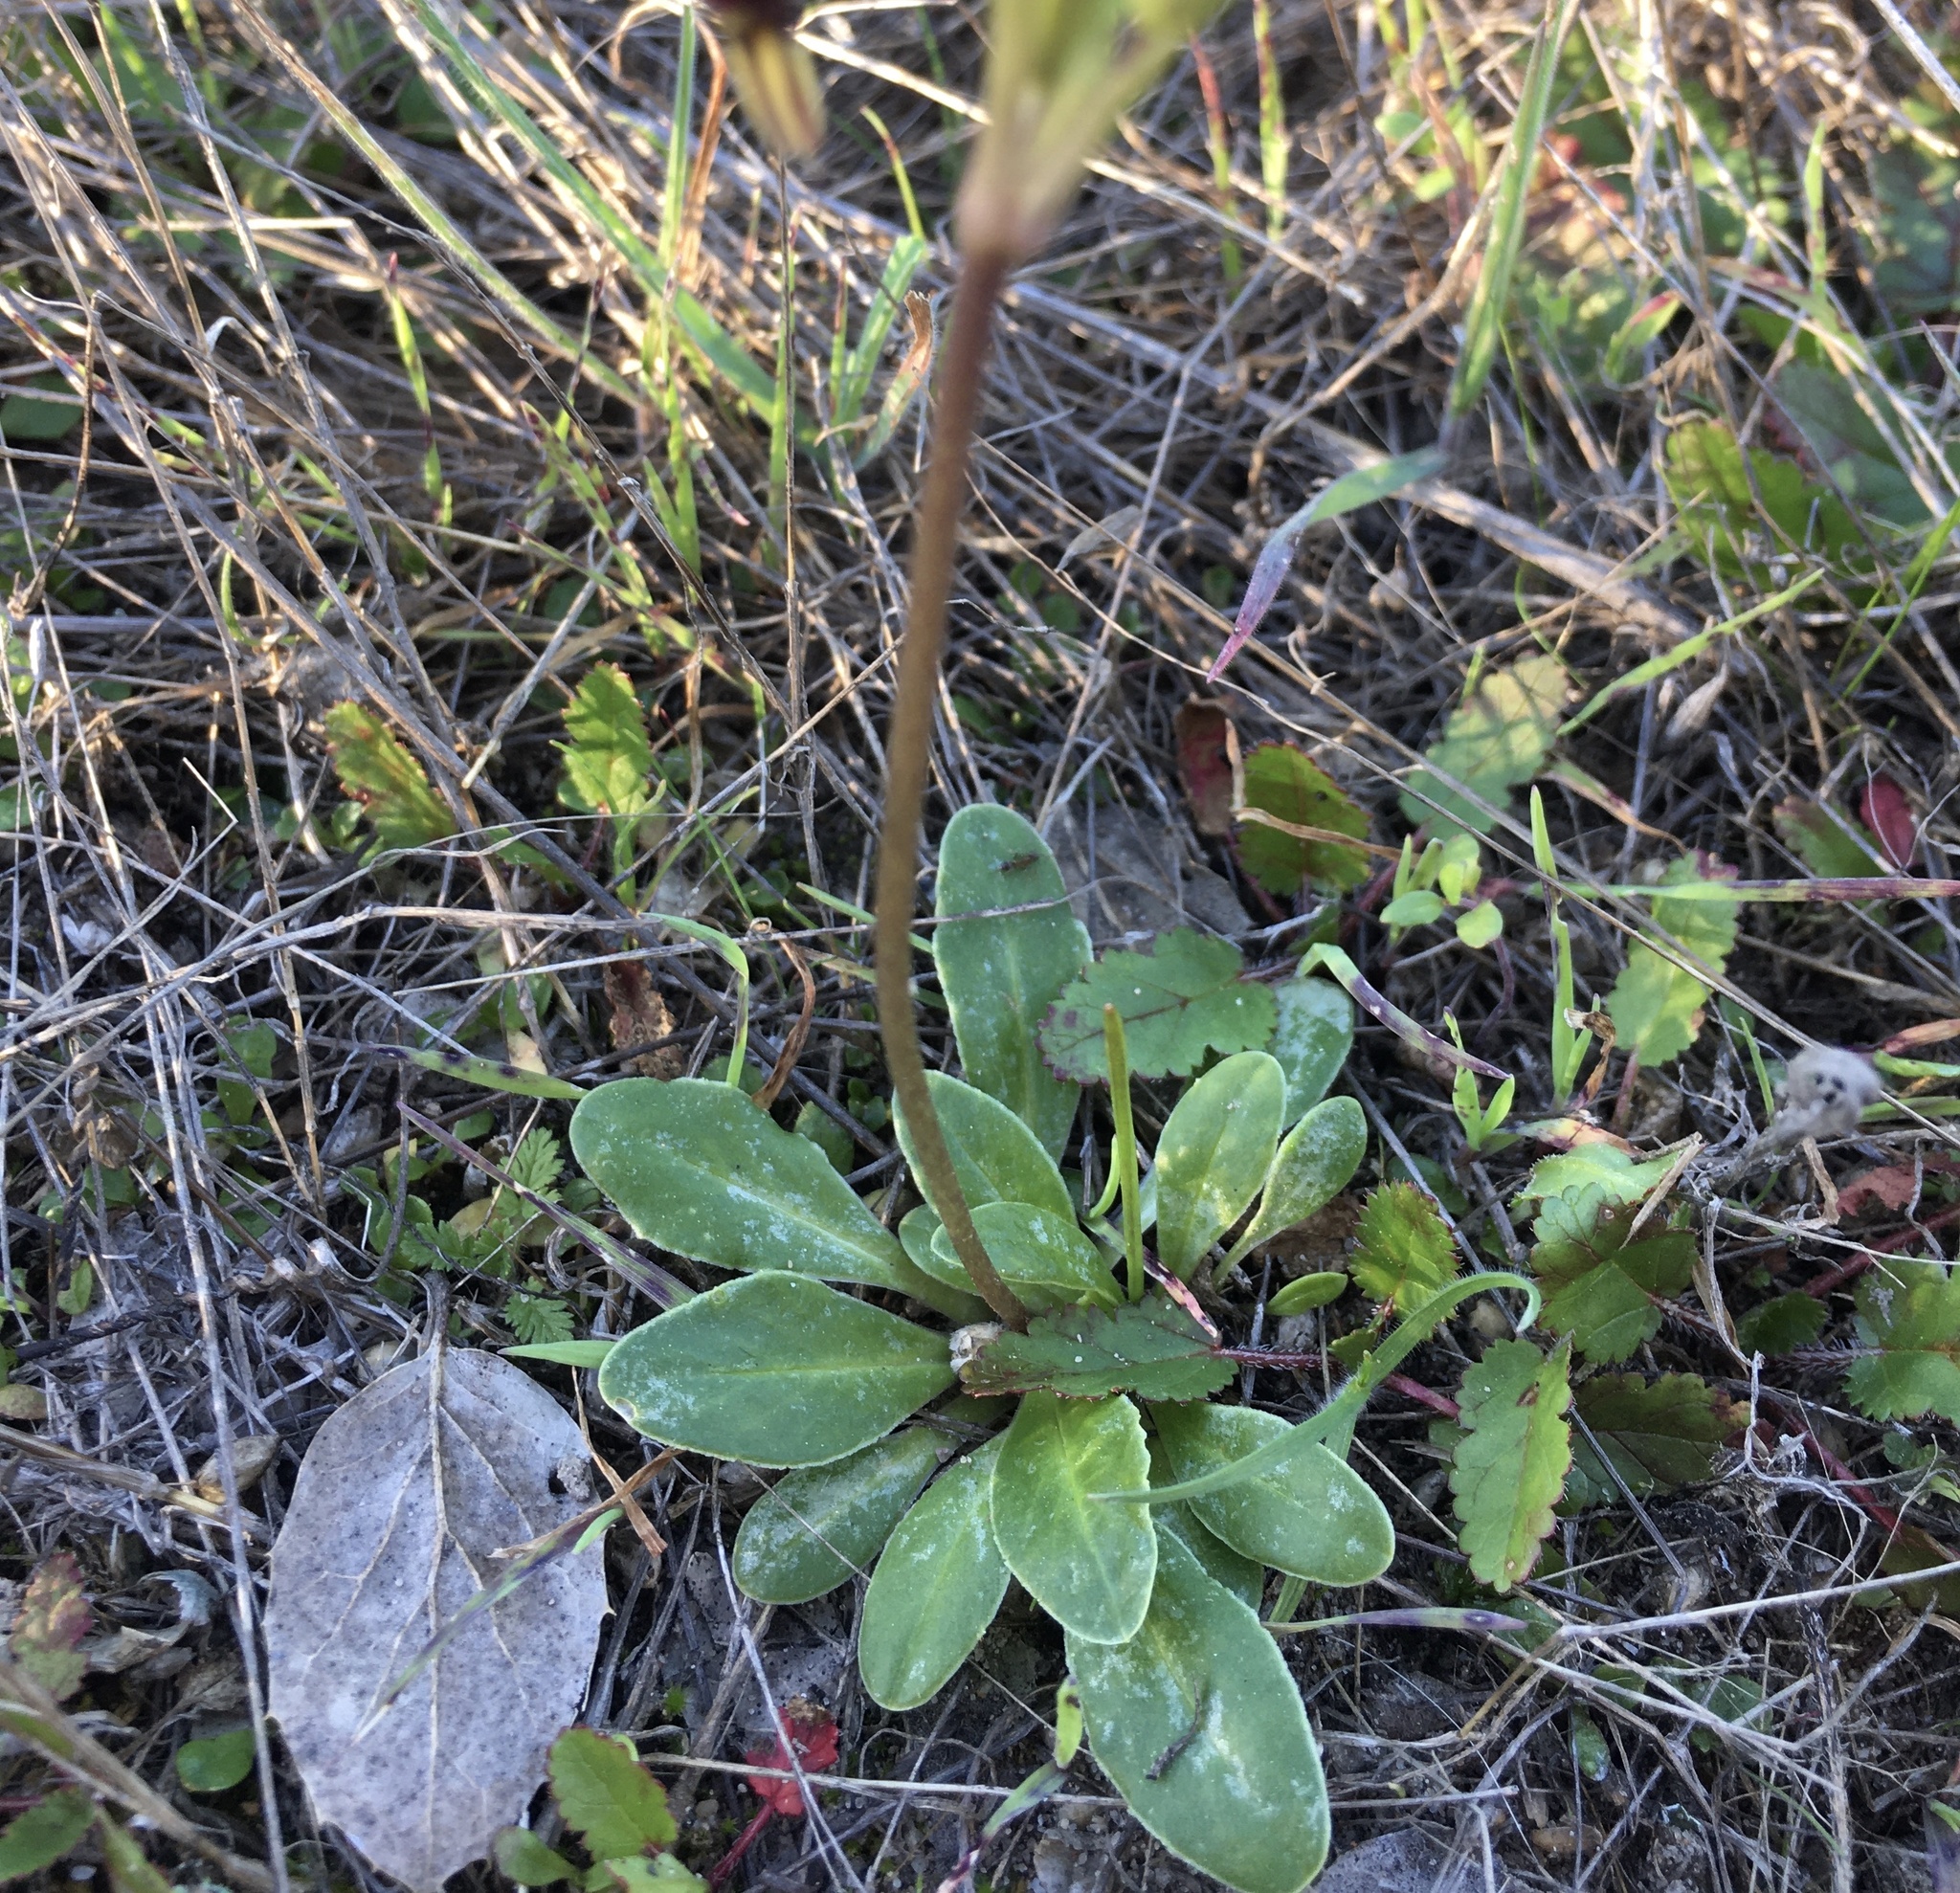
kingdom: Plantae
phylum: Tracheophyta
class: Magnoliopsida
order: Ericales
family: Primulaceae
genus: Dodecatheon
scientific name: Dodecatheon clevelandii
